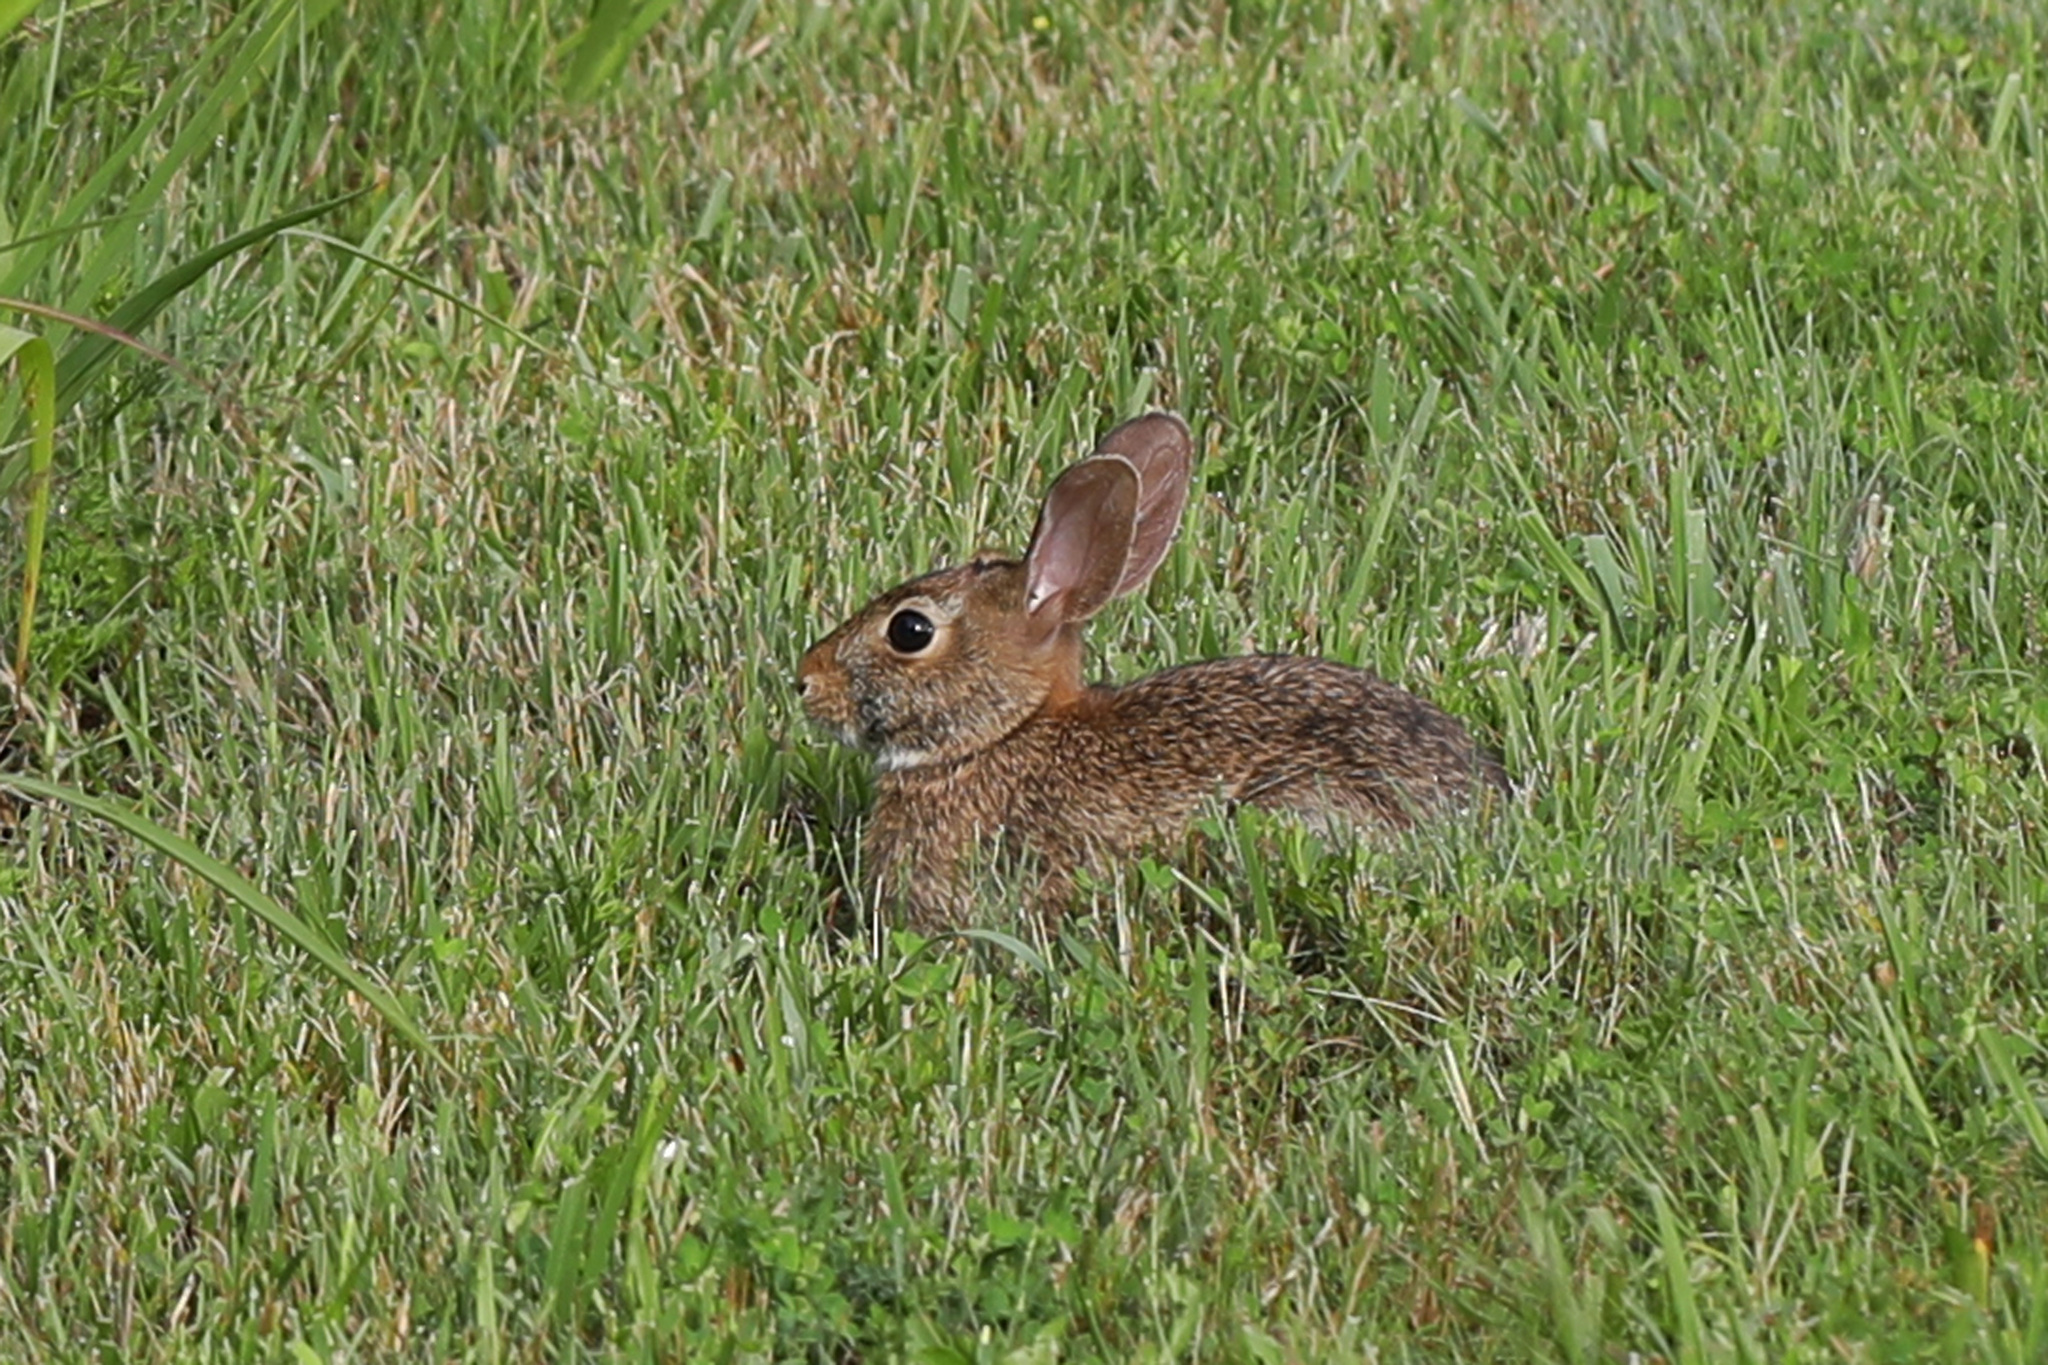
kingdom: Animalia
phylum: Chordata
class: Mammalia
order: Lagomorpha
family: Leporidae
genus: Sylvilagus
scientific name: Sylvilagus floridanus
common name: Eastern cottontail
